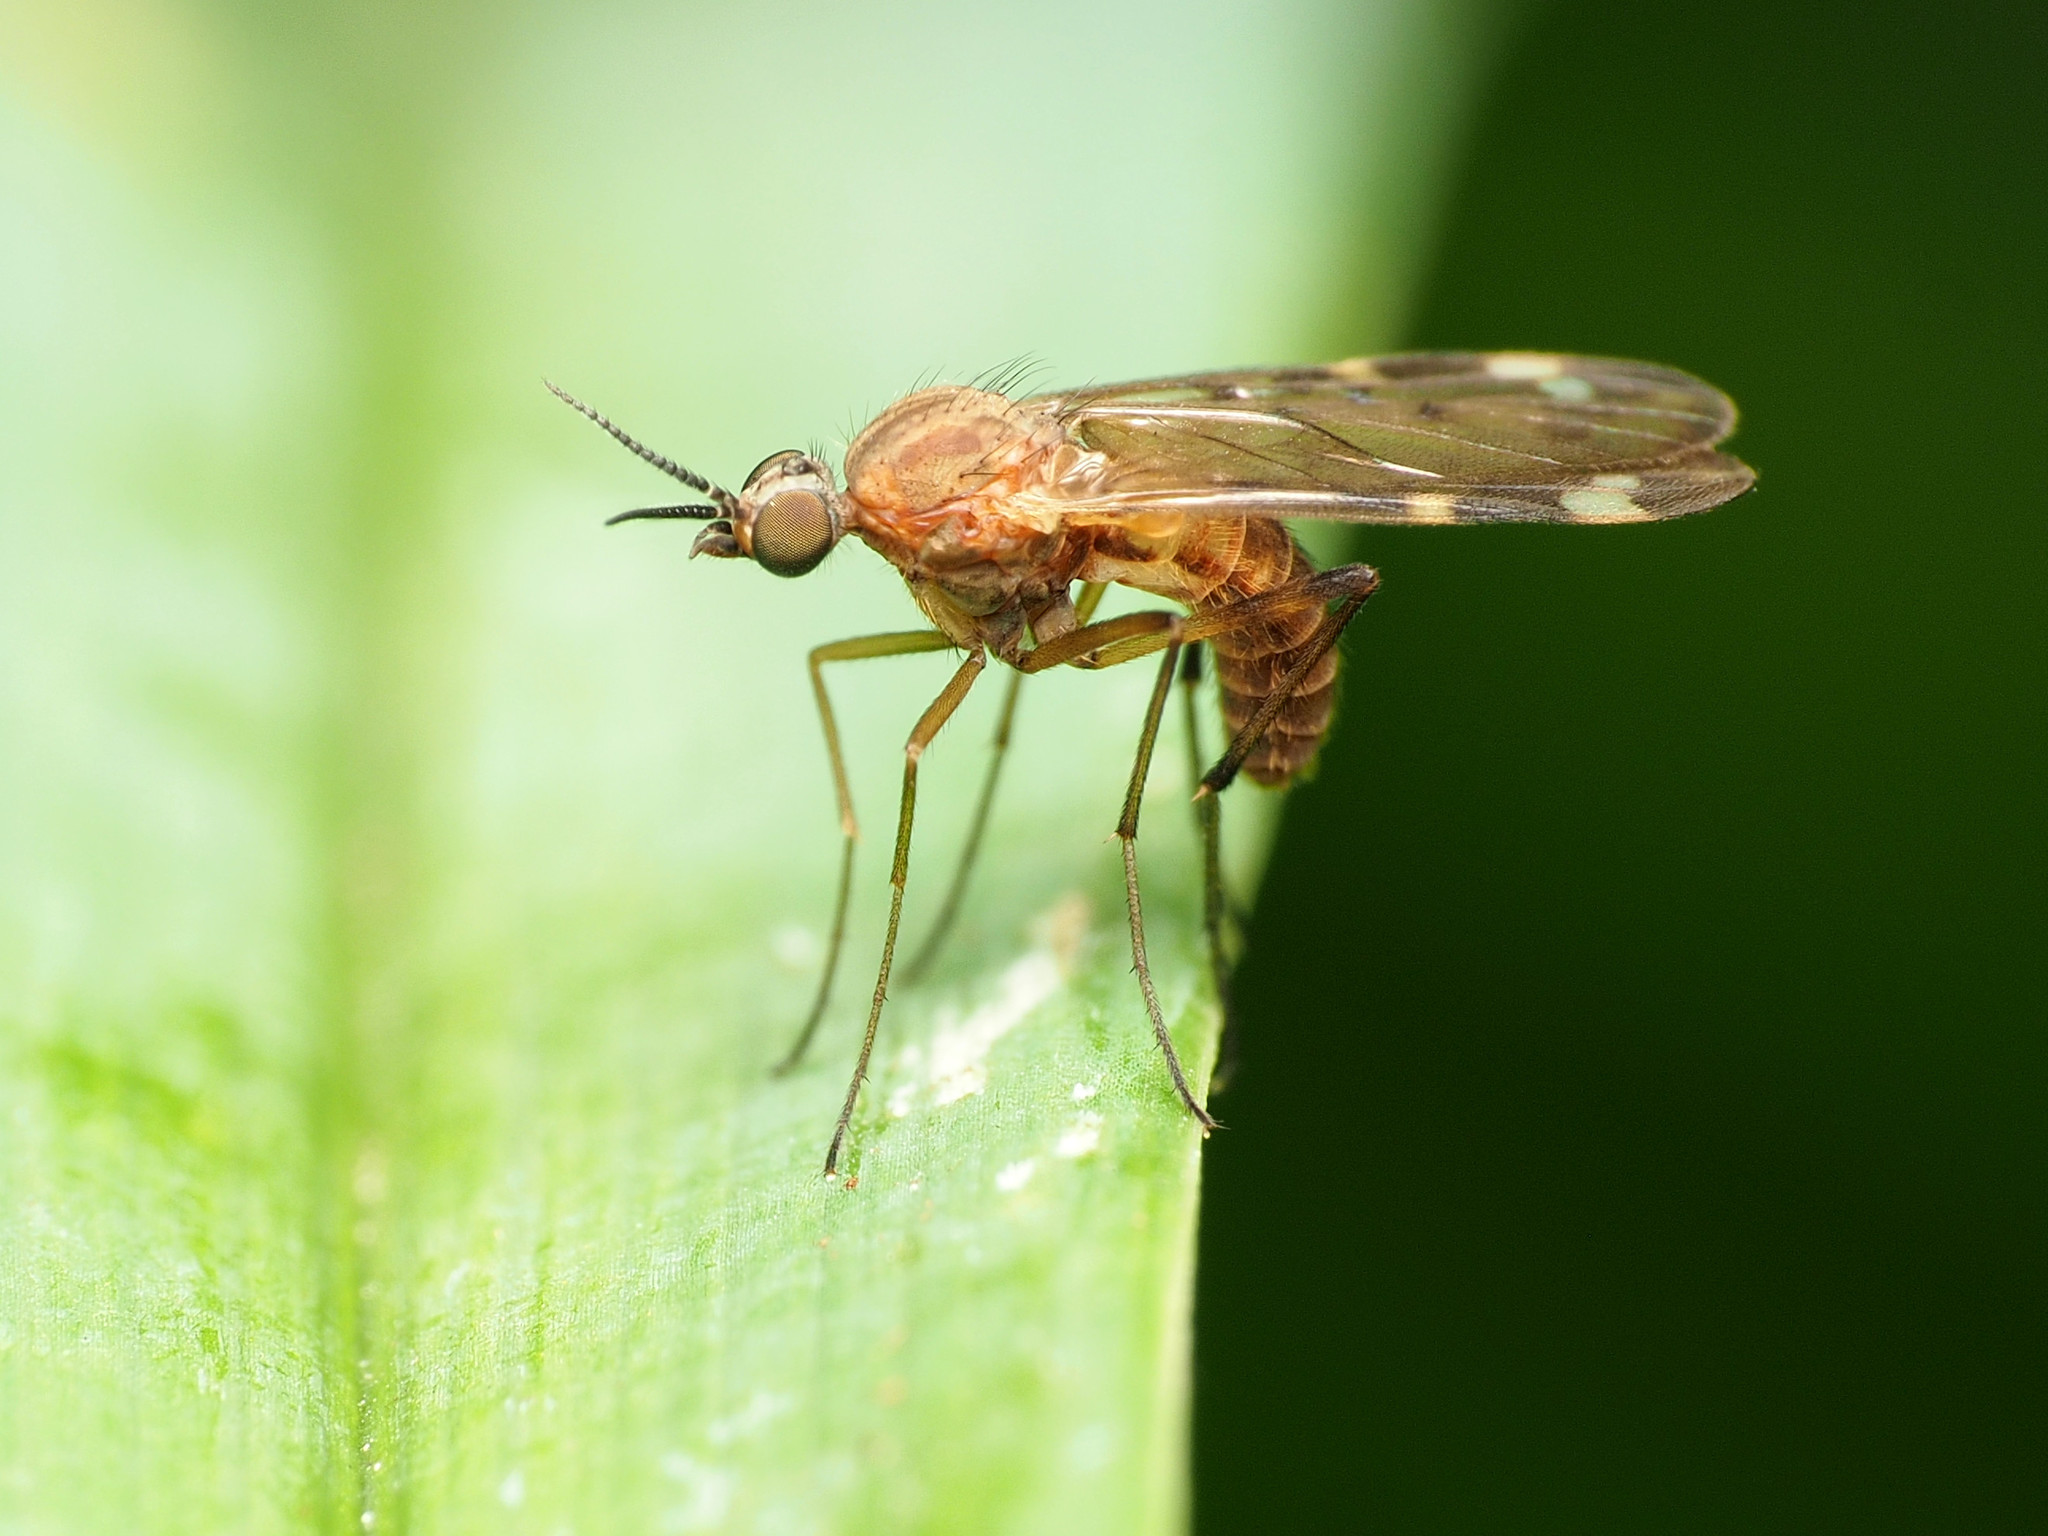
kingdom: Animalia
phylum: Arthropoda
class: Insecta
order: Diptera
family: Anisopodidae
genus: Sylvicola
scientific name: Sylvicola alternata
